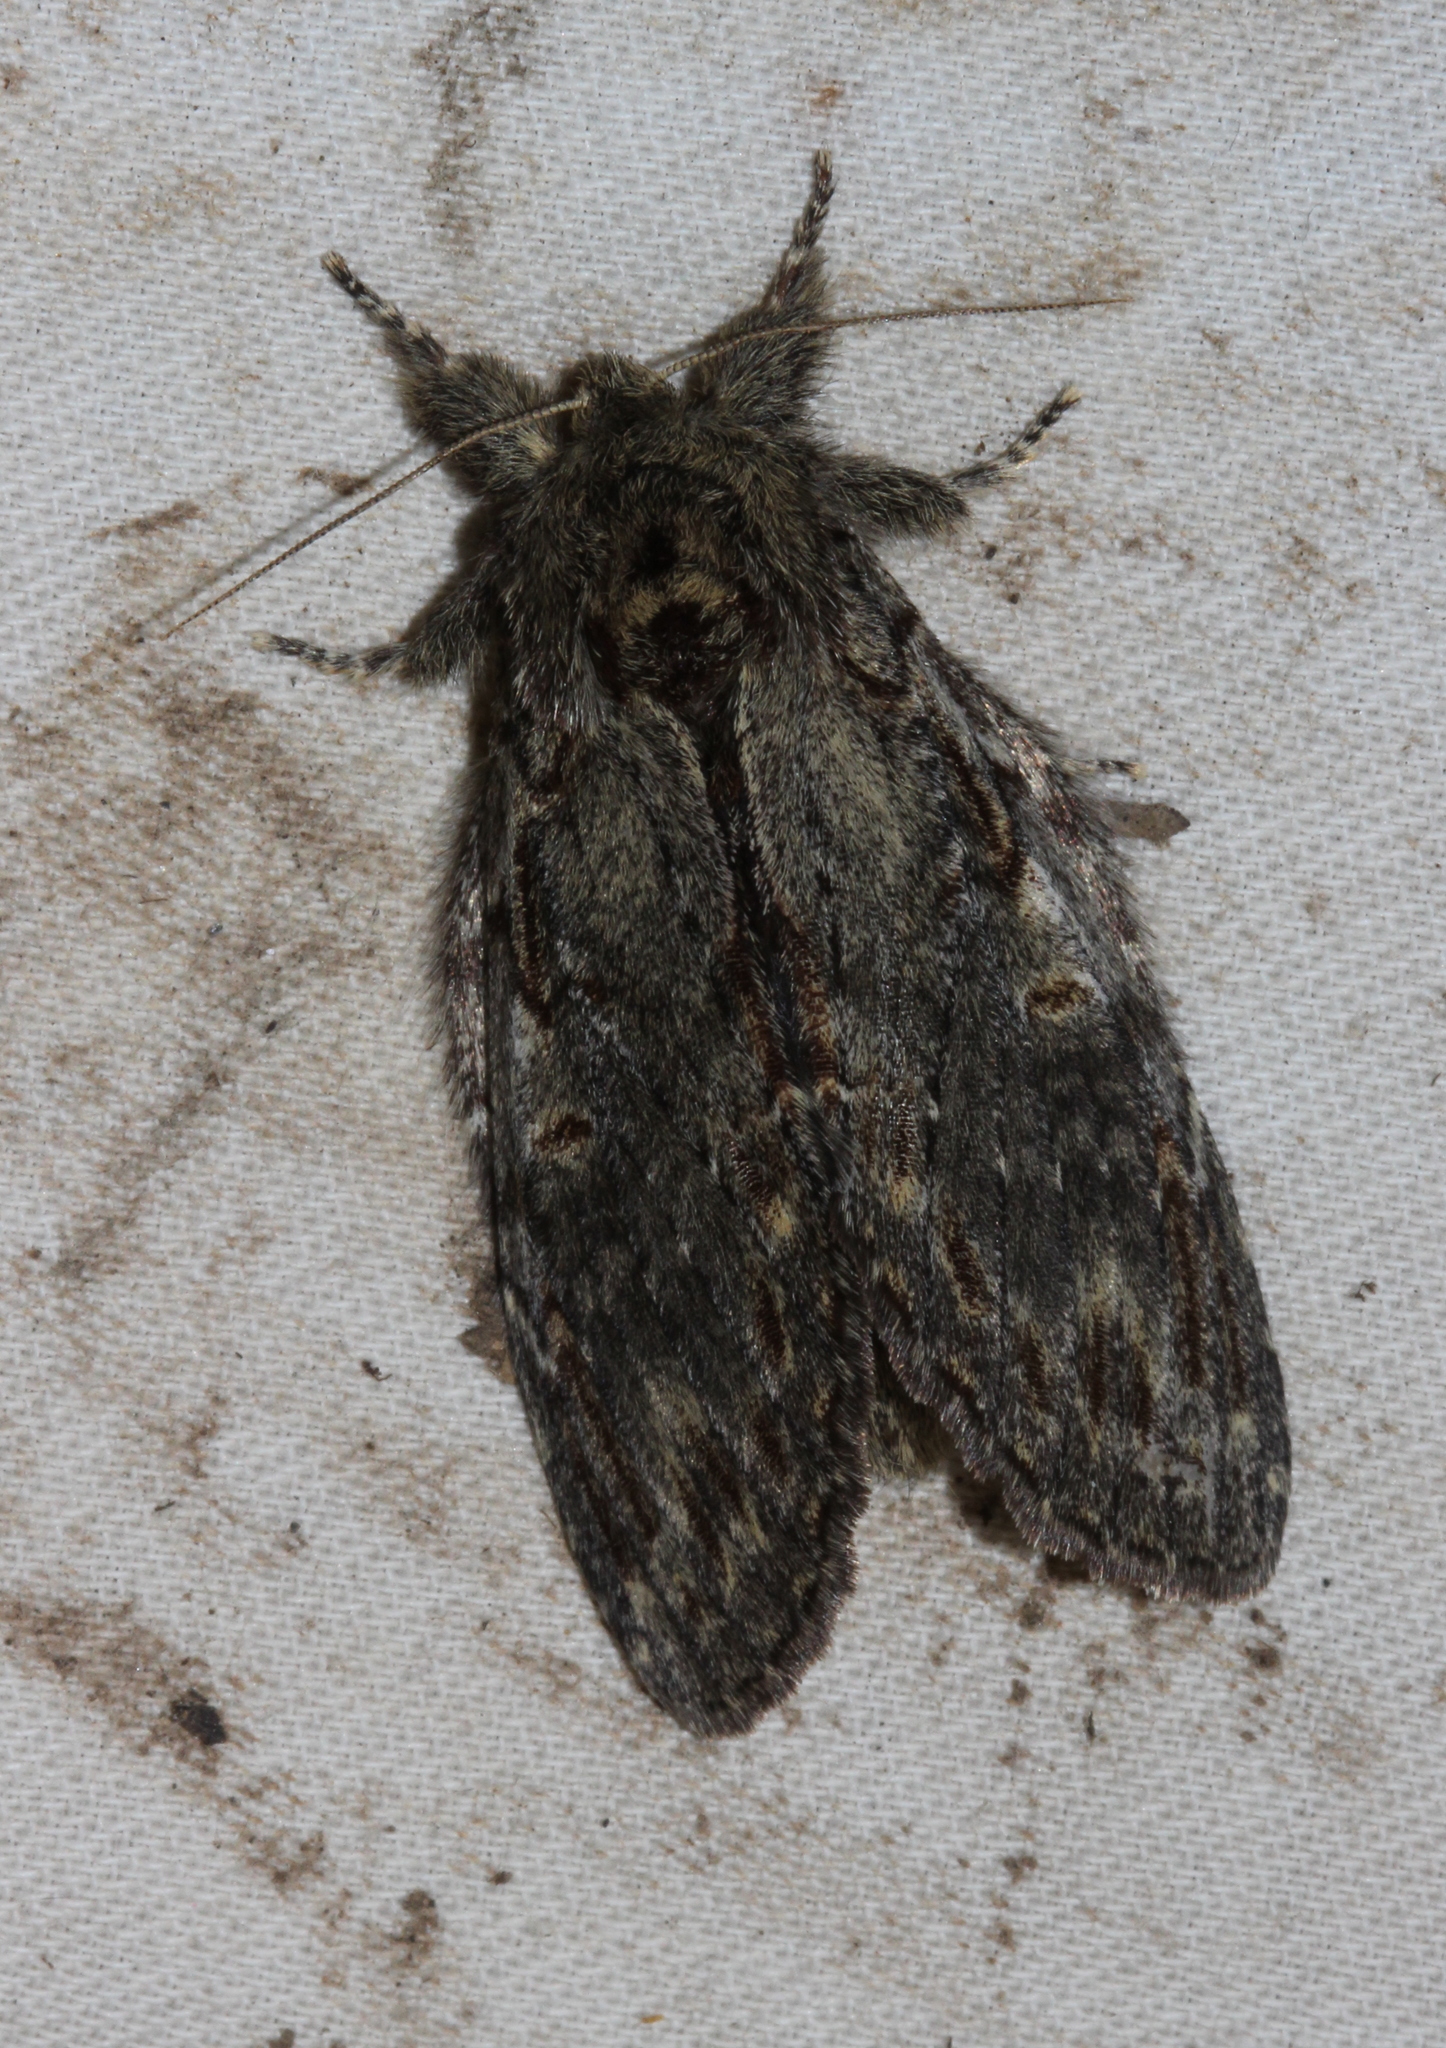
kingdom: Animalia
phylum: Arthropoda
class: Insecta
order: Lepidoptera
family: Notodontidae
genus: Peridea
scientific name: Peridea anceps
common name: Great prominent
